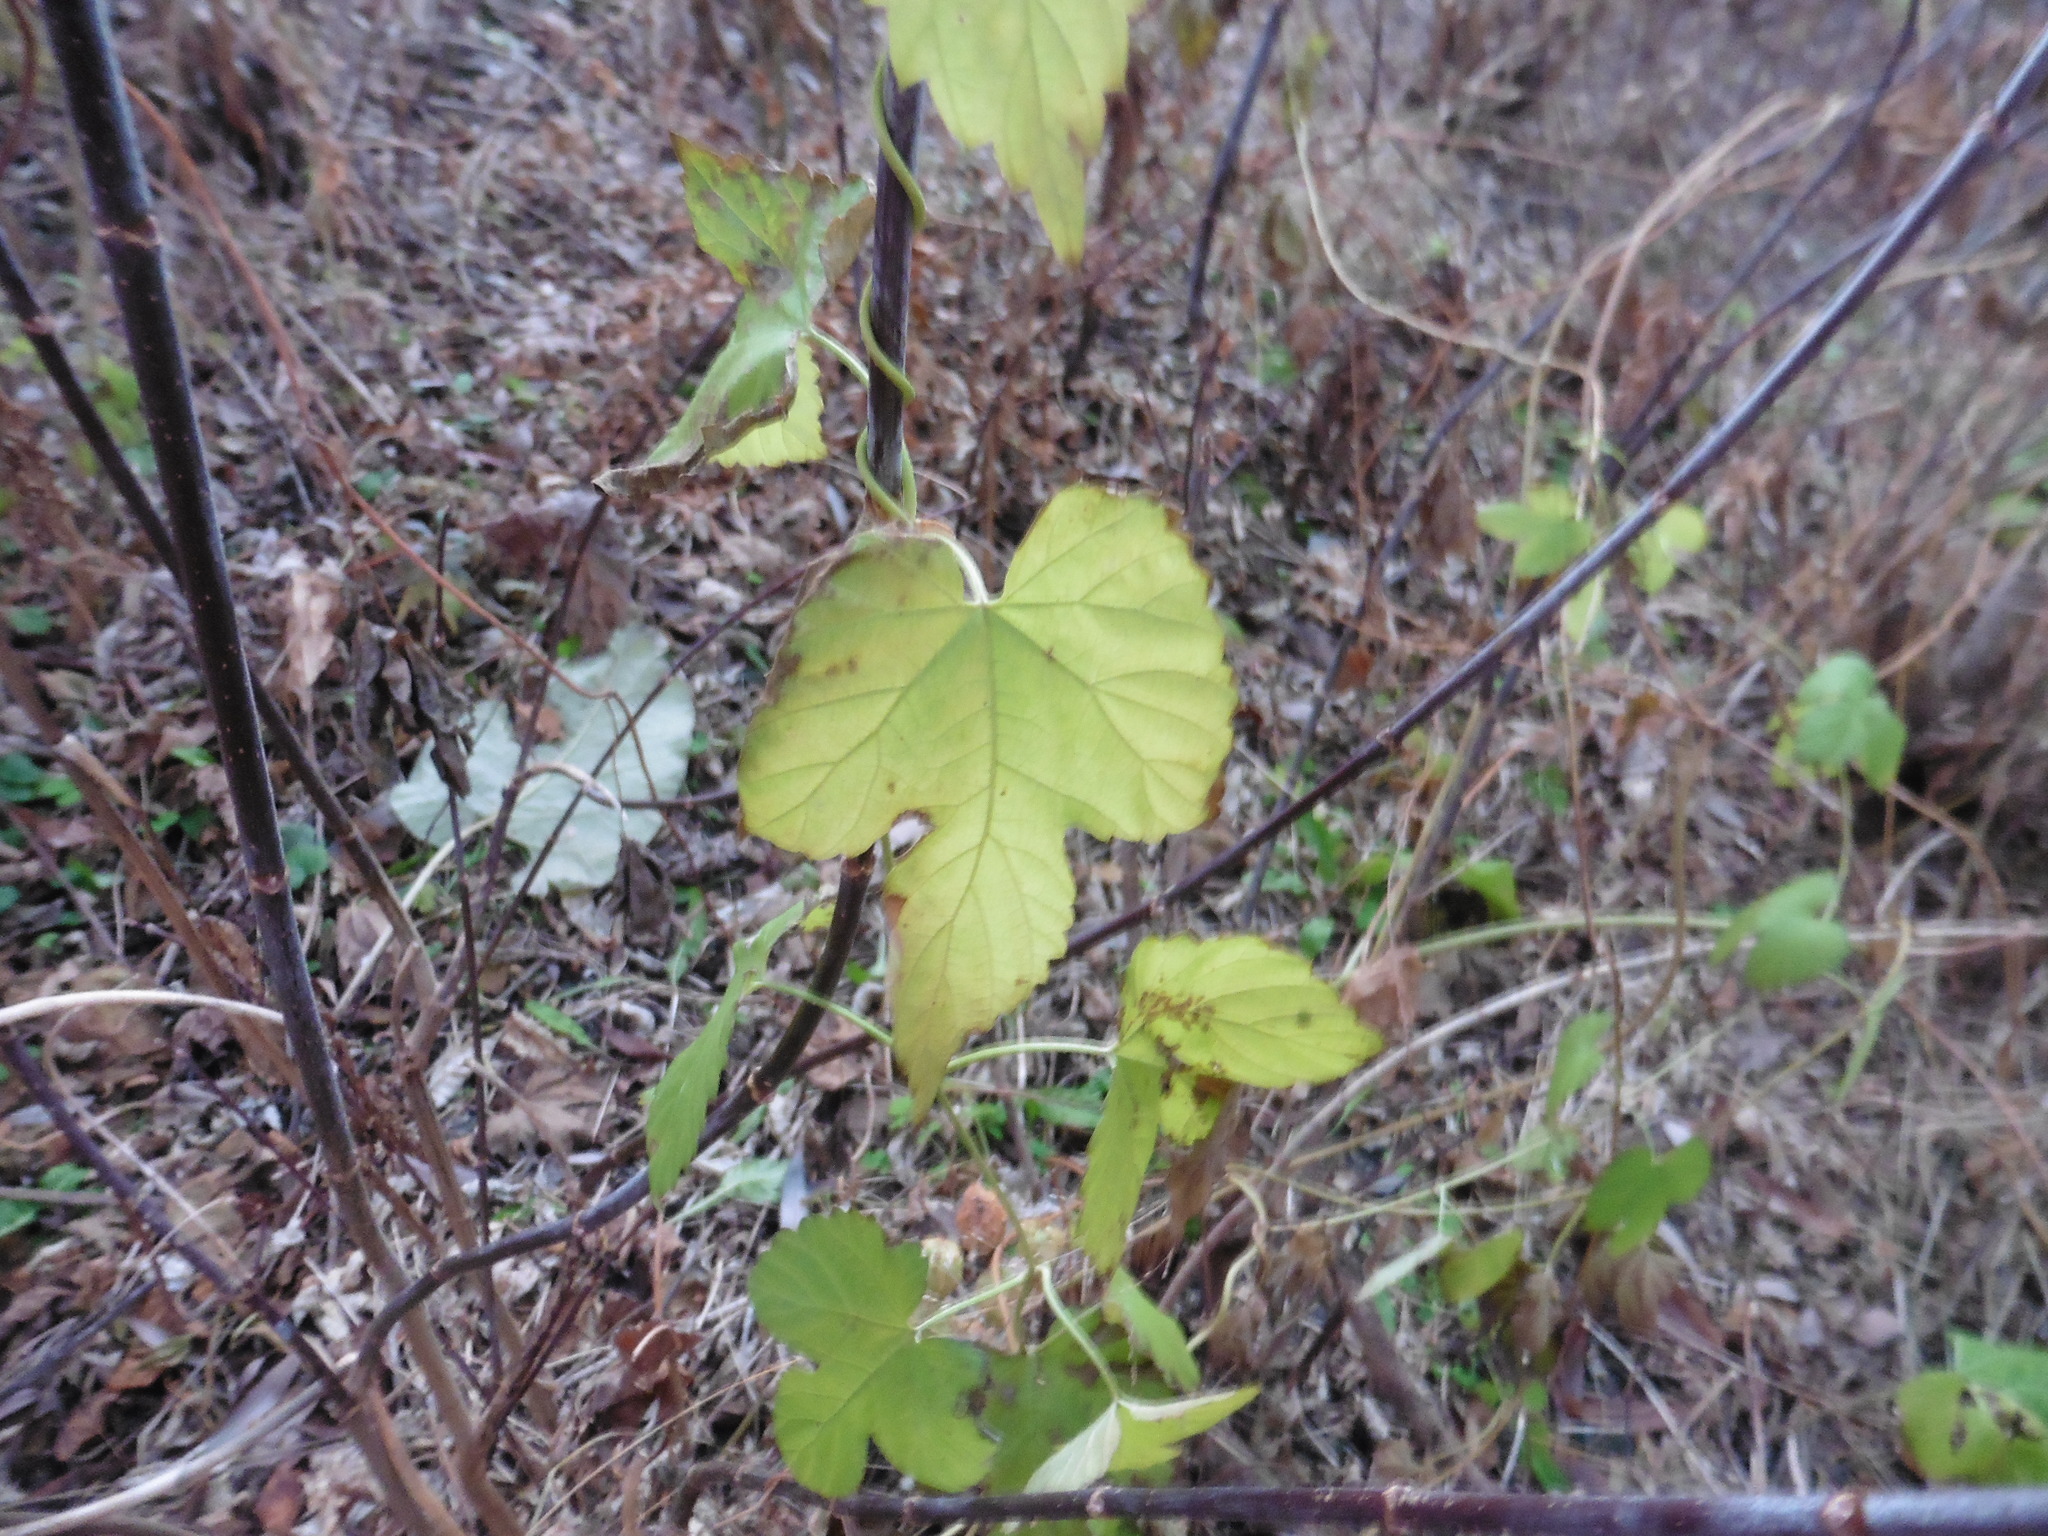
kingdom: Plantae
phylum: Tracheophyta
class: Magnoliopsida
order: Rosales
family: Cannabaceae
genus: Humulus
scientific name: Humulus lupulus
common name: Hop
